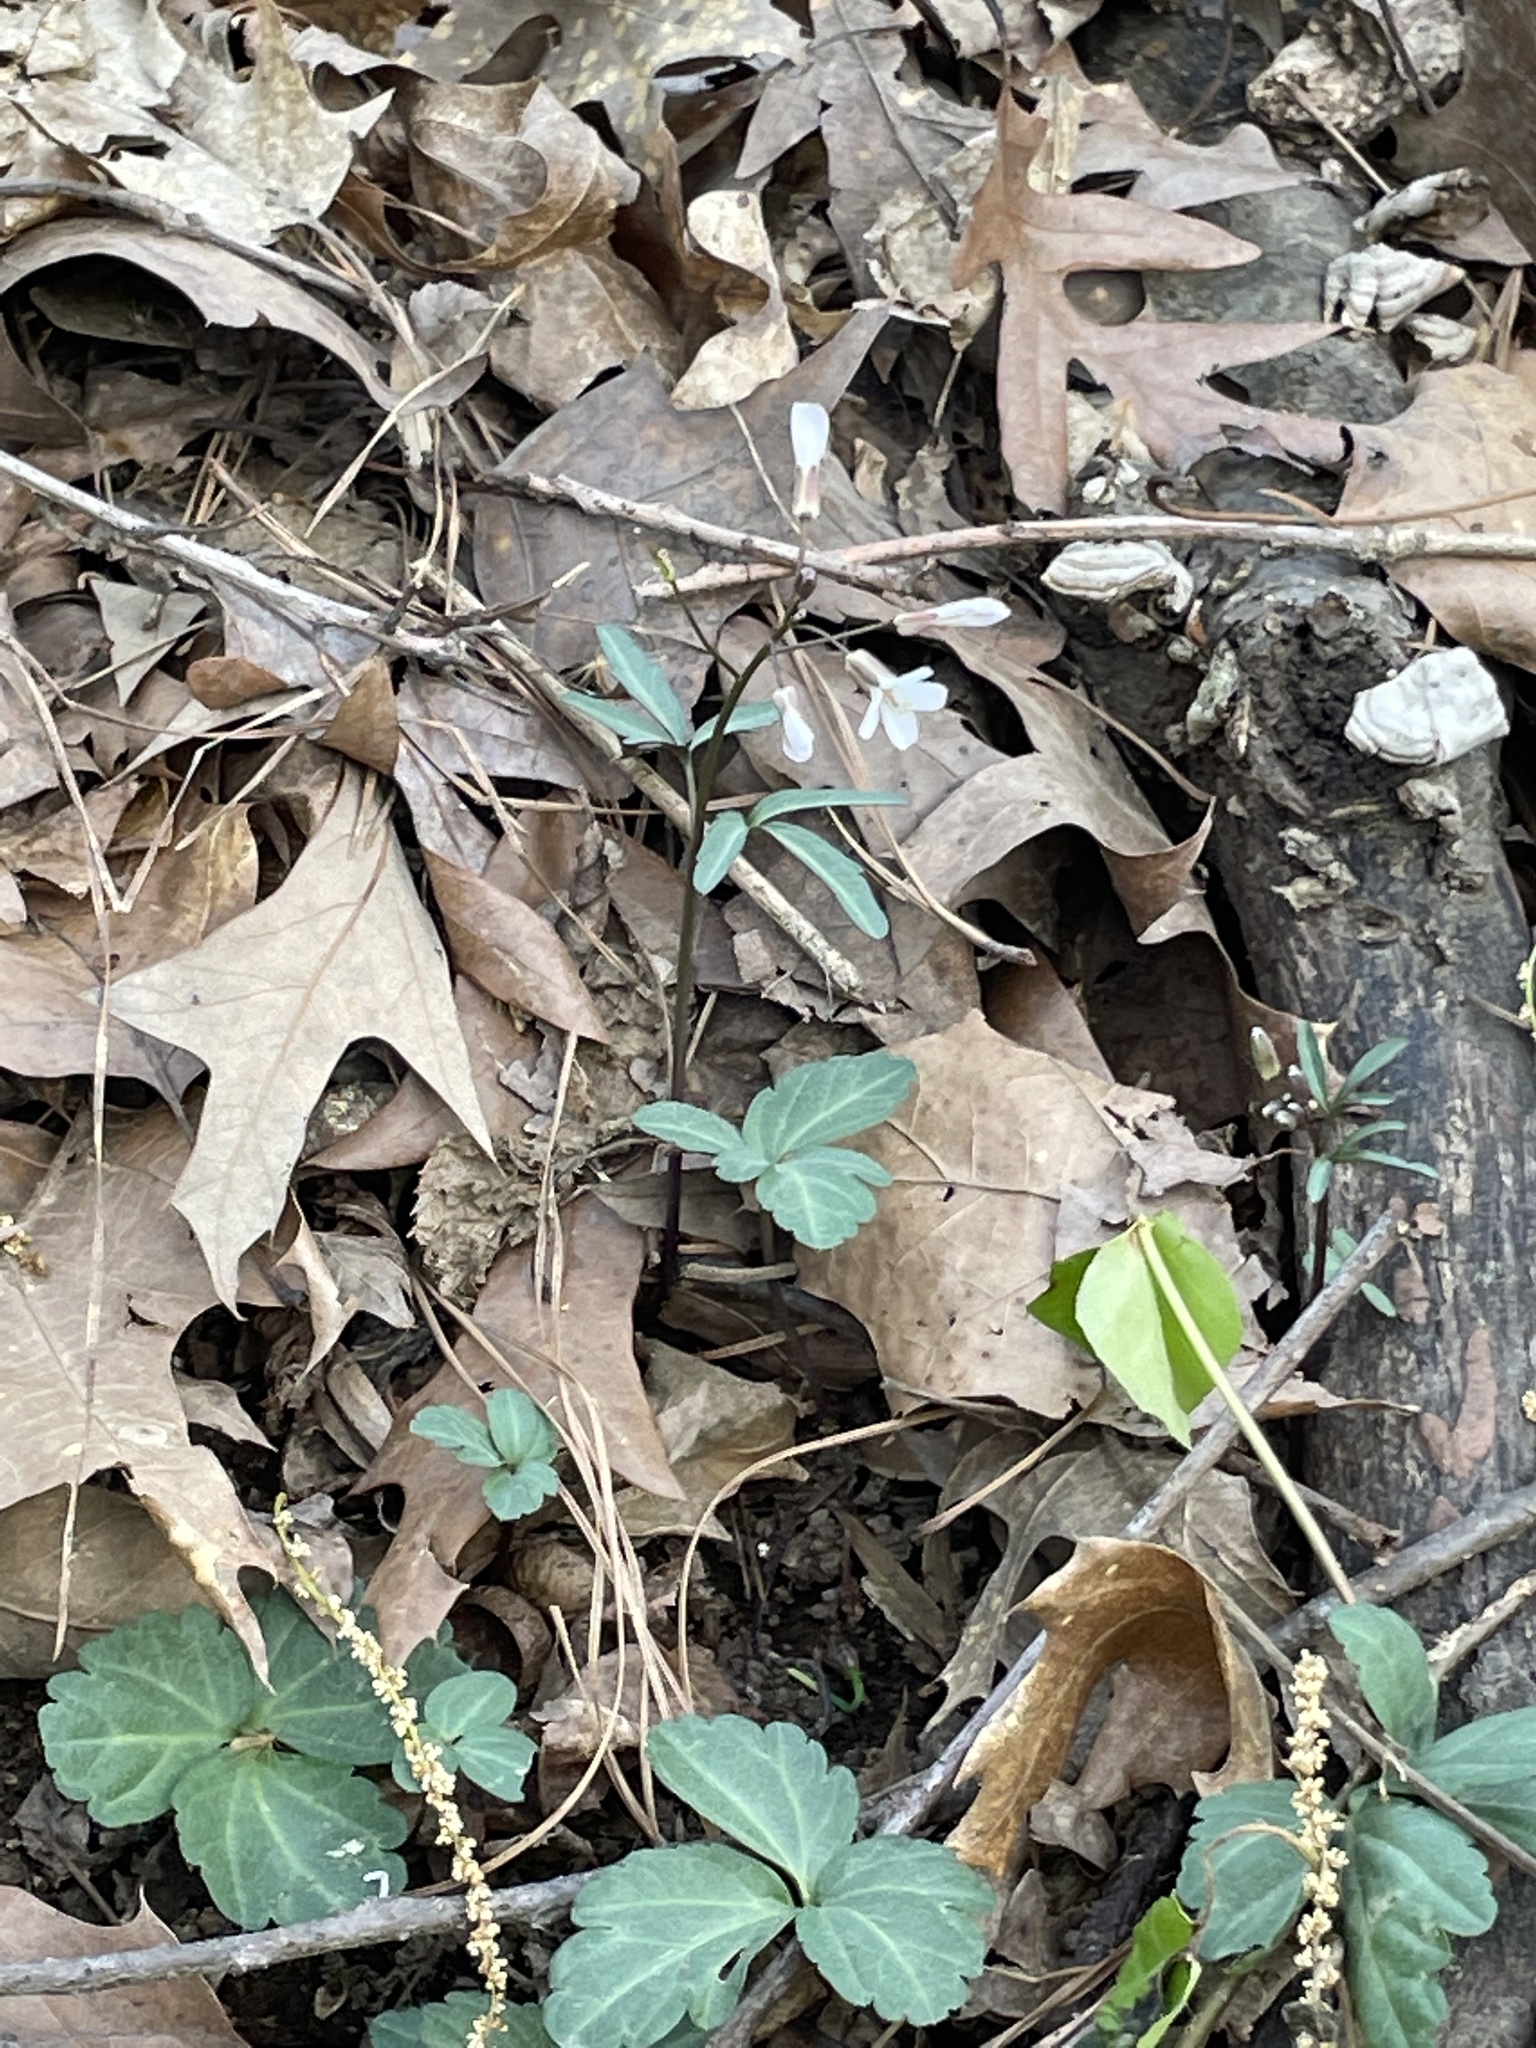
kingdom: Plantae
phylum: Tracheophyta
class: Magnoliopsida
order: Brassicales
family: Brassicaceae
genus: Cardamine
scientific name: Cardamine angustata
